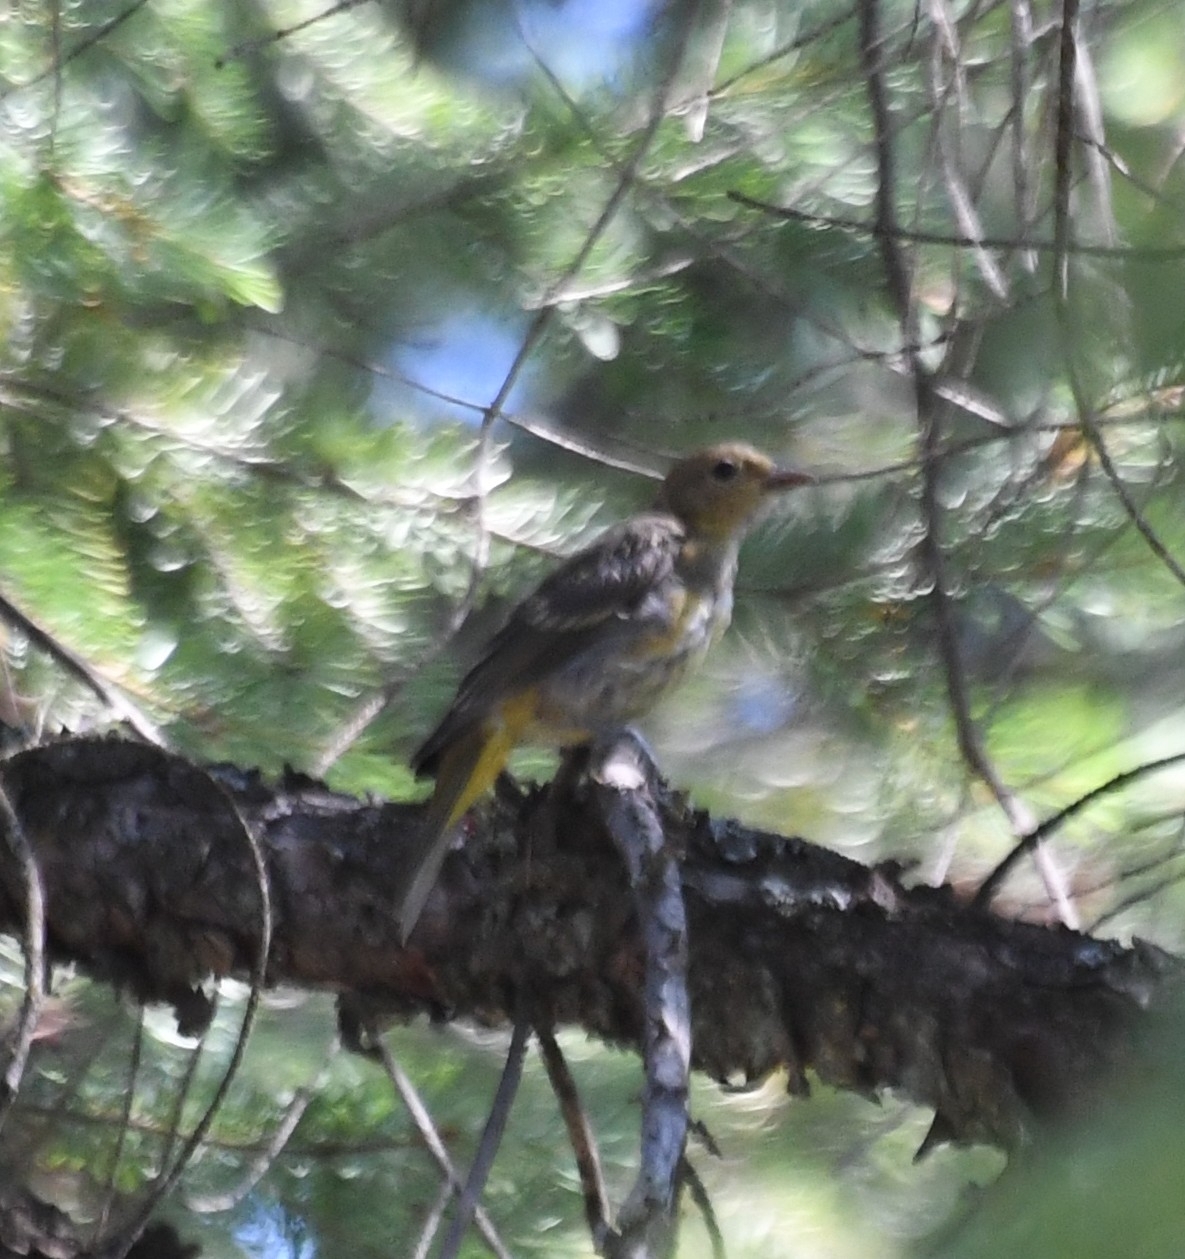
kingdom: Animalia
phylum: Chordata
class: Aves
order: Passeriformes
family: Cardinalidae
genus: Piranga
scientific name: Piranga ludoviciana
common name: Western tanager
